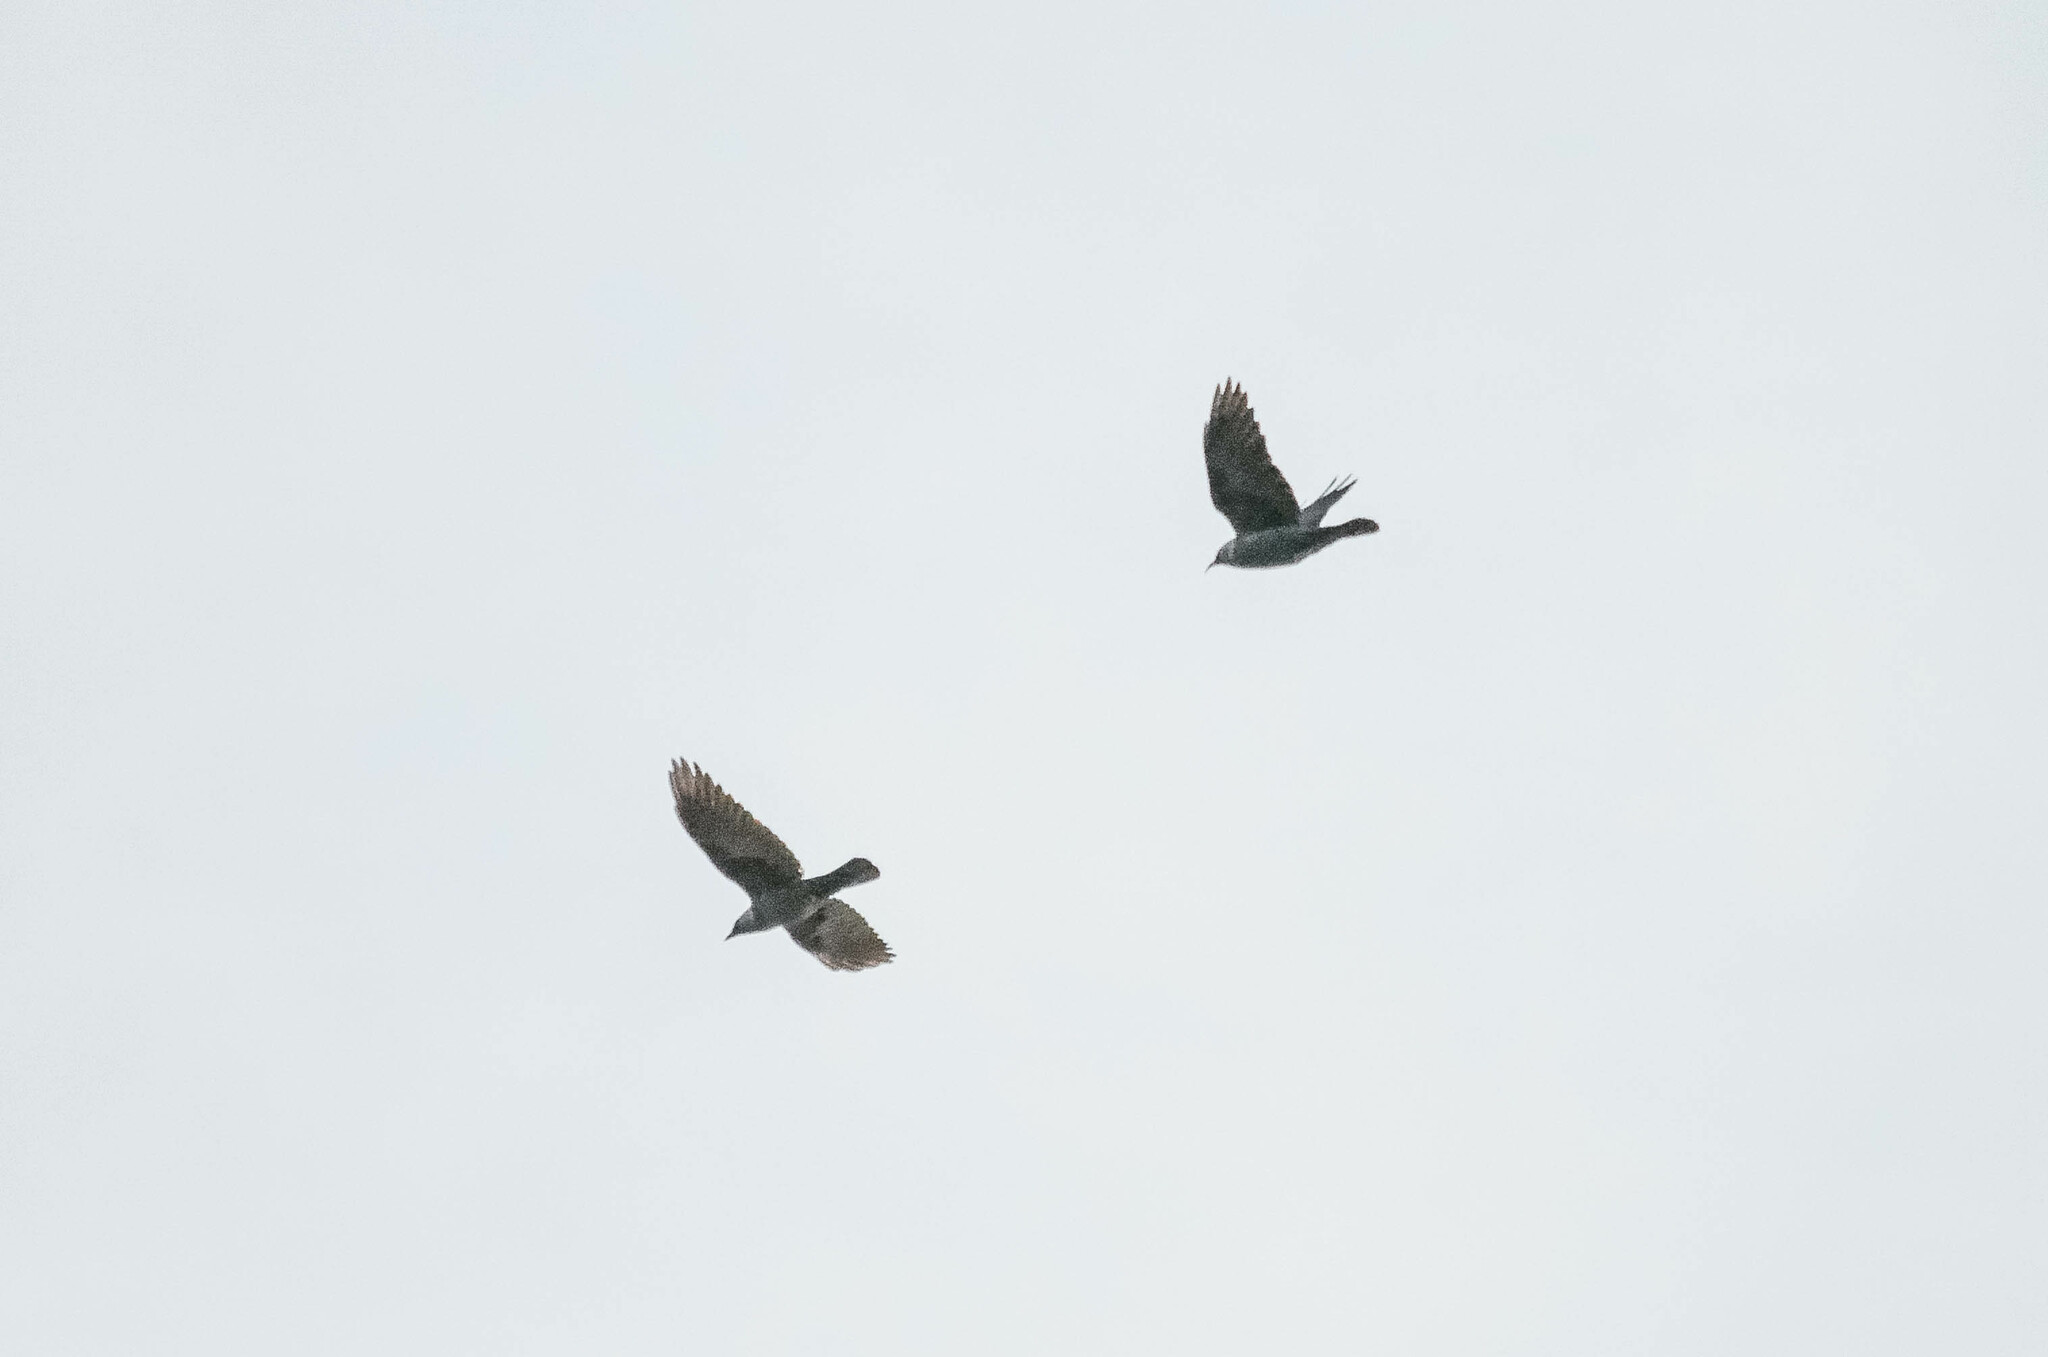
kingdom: Animalia
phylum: Chordata
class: Aves
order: Passeriformes
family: Corvidae
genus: Coloeus
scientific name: Coloeus monedula
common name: Western jackdaw
